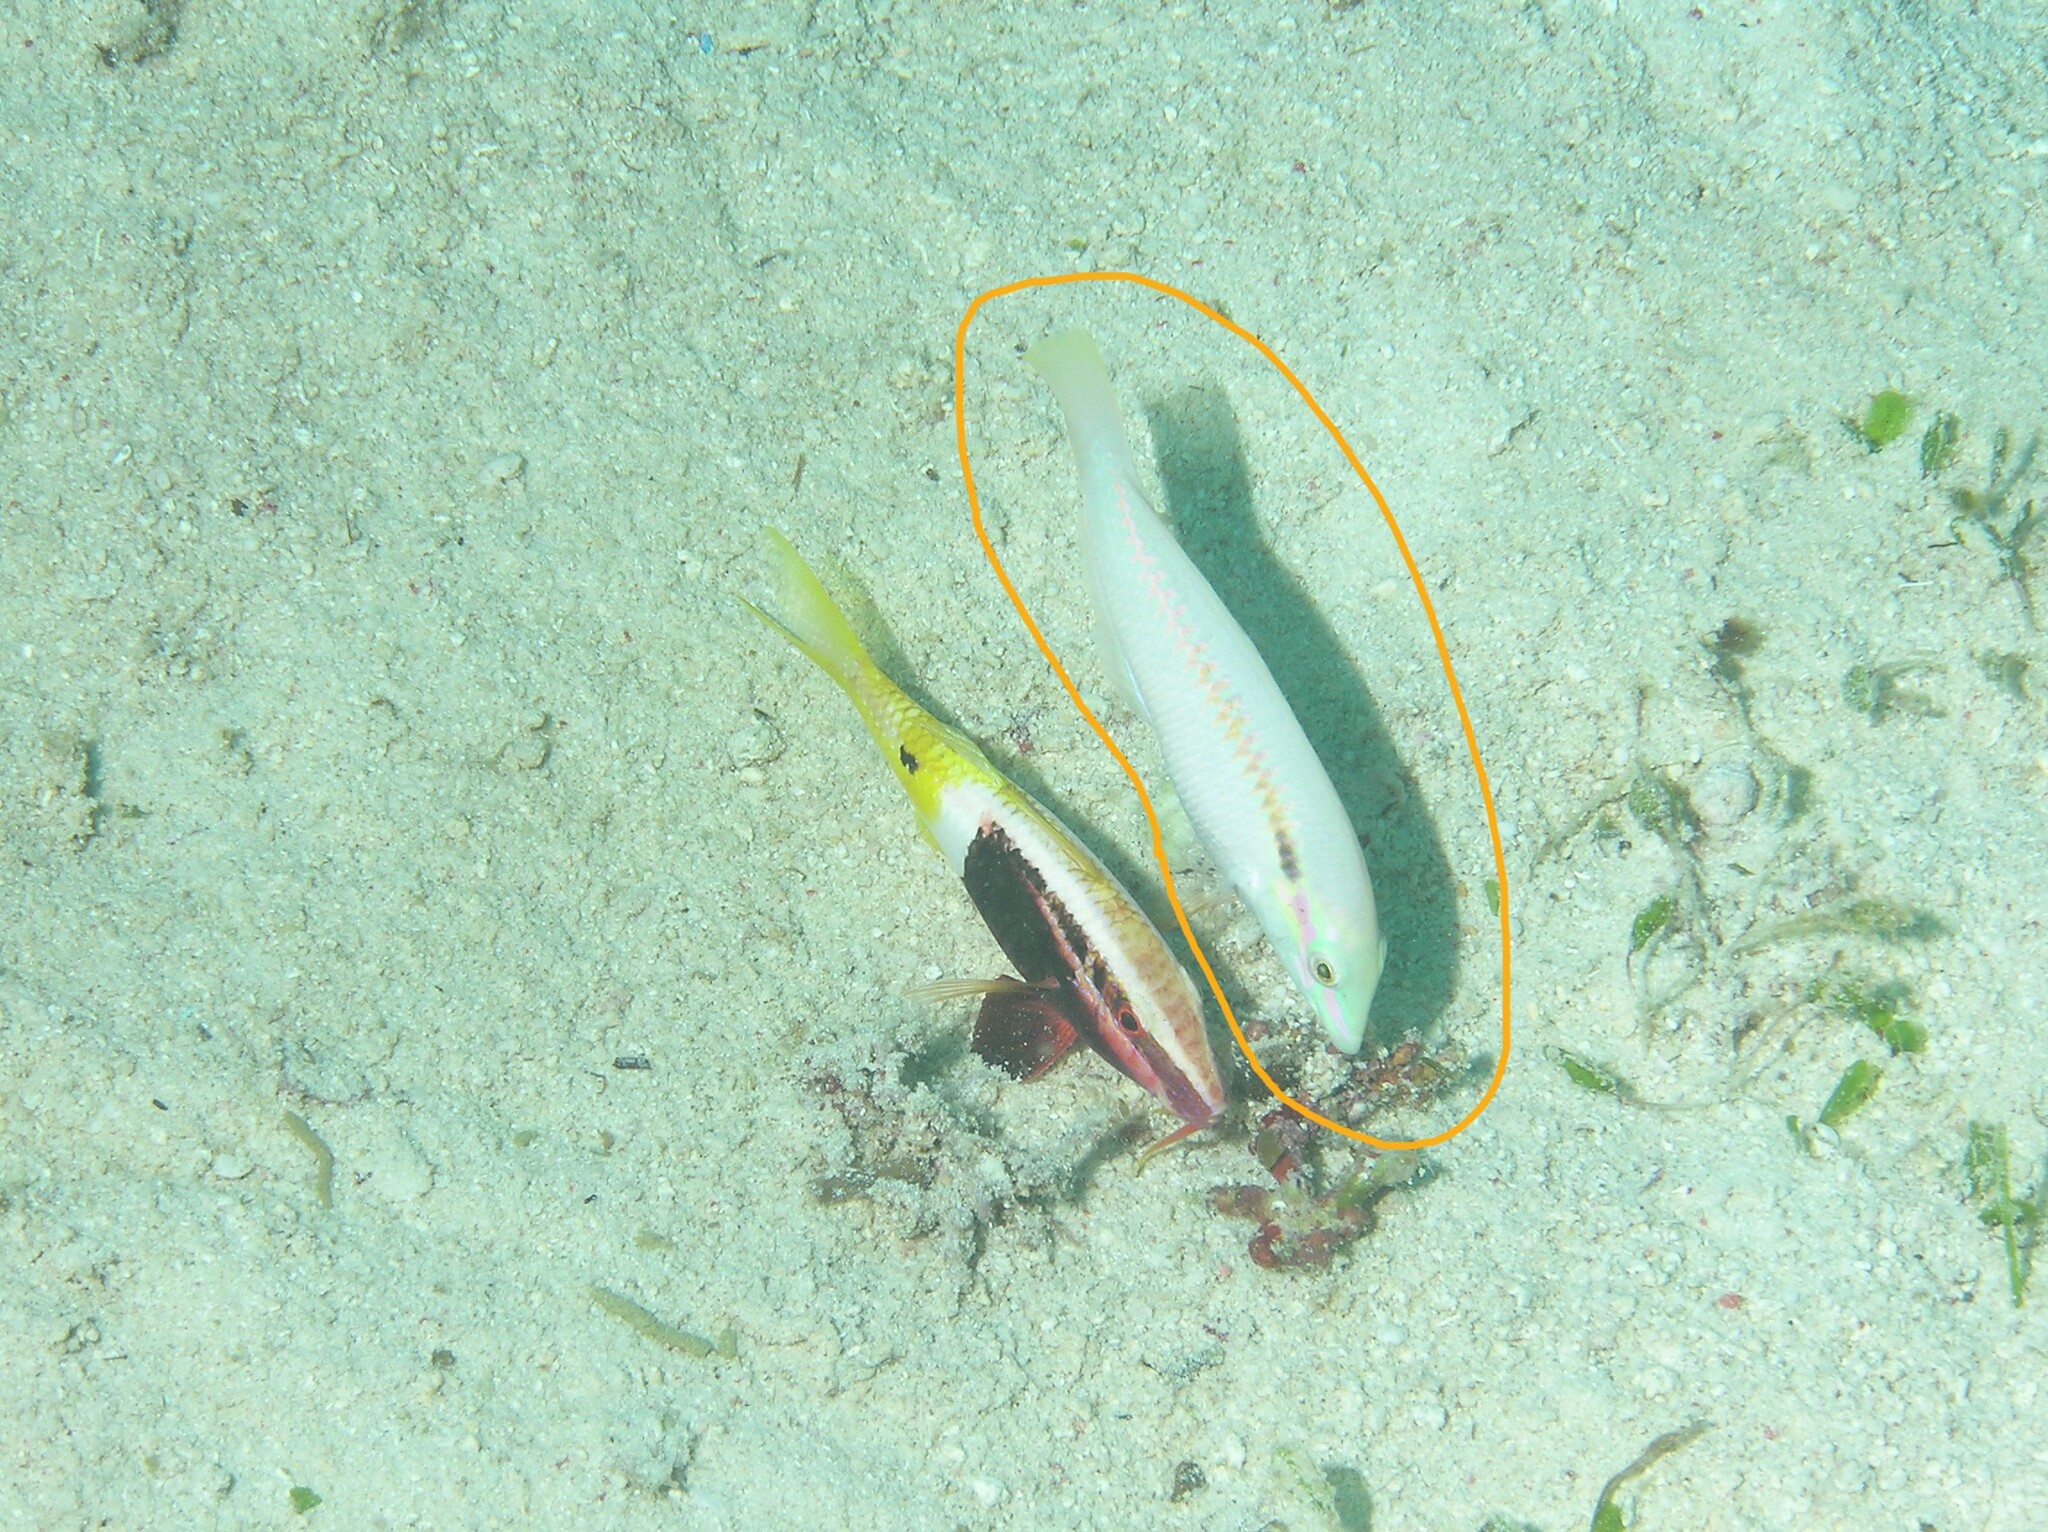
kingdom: Animalia
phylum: Chordata
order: Perciformes
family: Labridae
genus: Halichoeres
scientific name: Halichoeres scapularis
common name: Brownbanded wrasse
